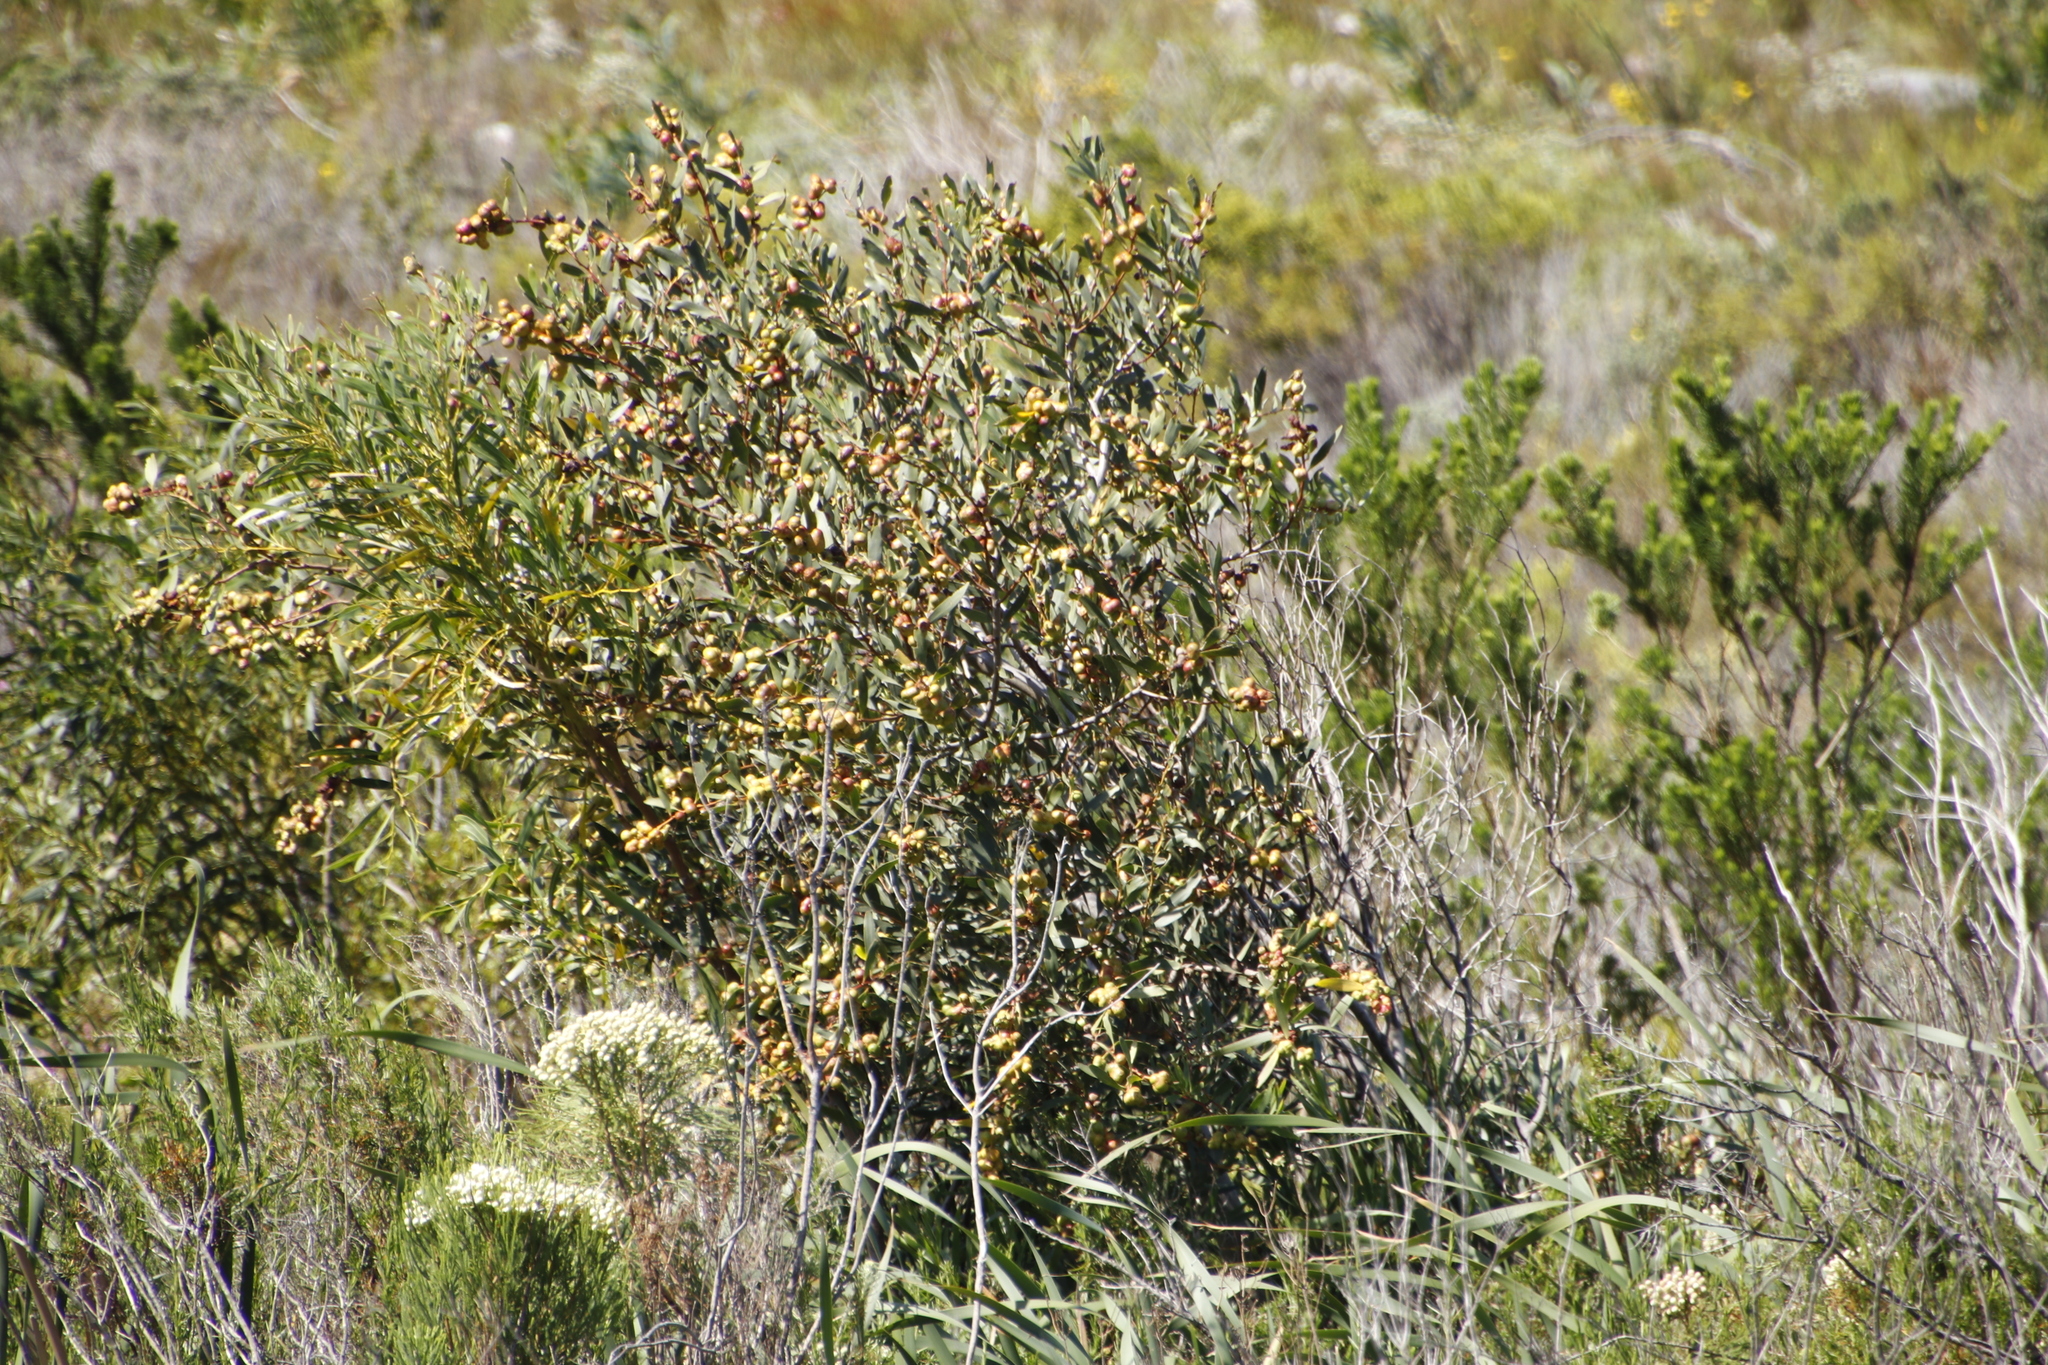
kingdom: Plantae
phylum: Tracheophyta
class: Magnoliopsida
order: Fabales
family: Fabaceae
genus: Acacia
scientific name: Acacia longifolia
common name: Sydney golden wattle
